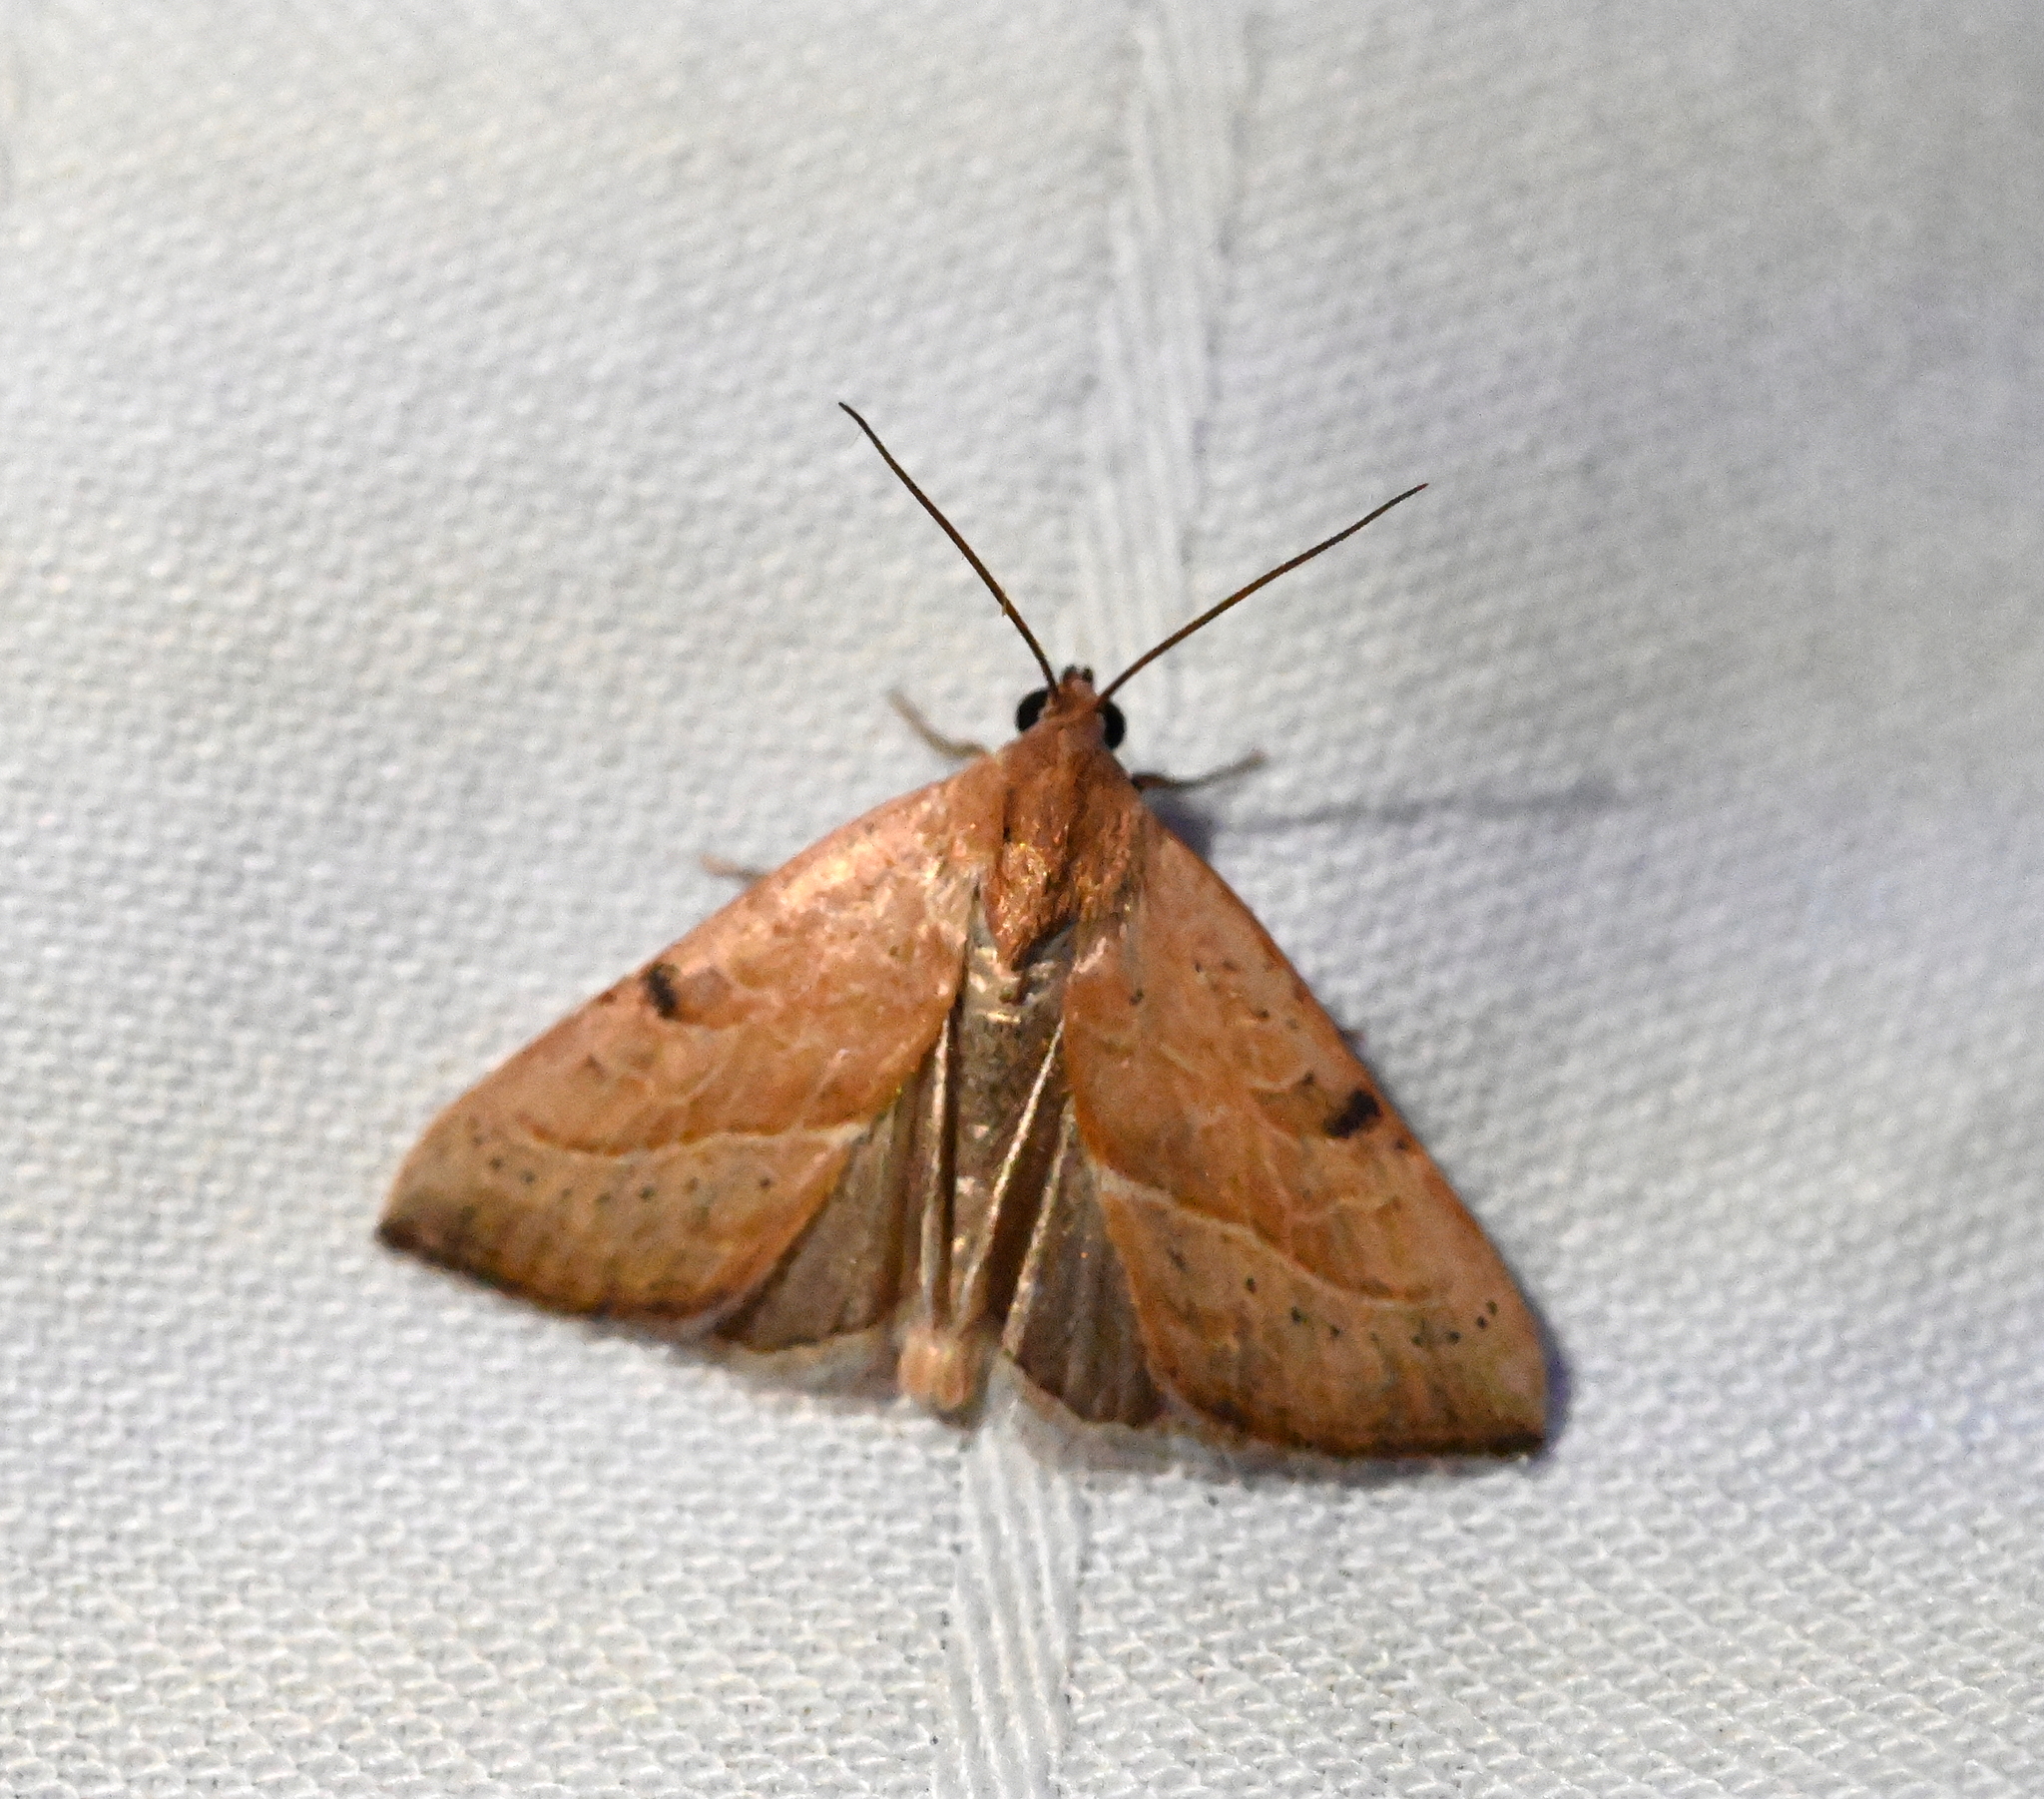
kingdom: Animalia
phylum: Arthropoda
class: Insecta
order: Lepidoptera
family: Noctuidae
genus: Galgula
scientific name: Galgula partita
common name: Wedgeling
